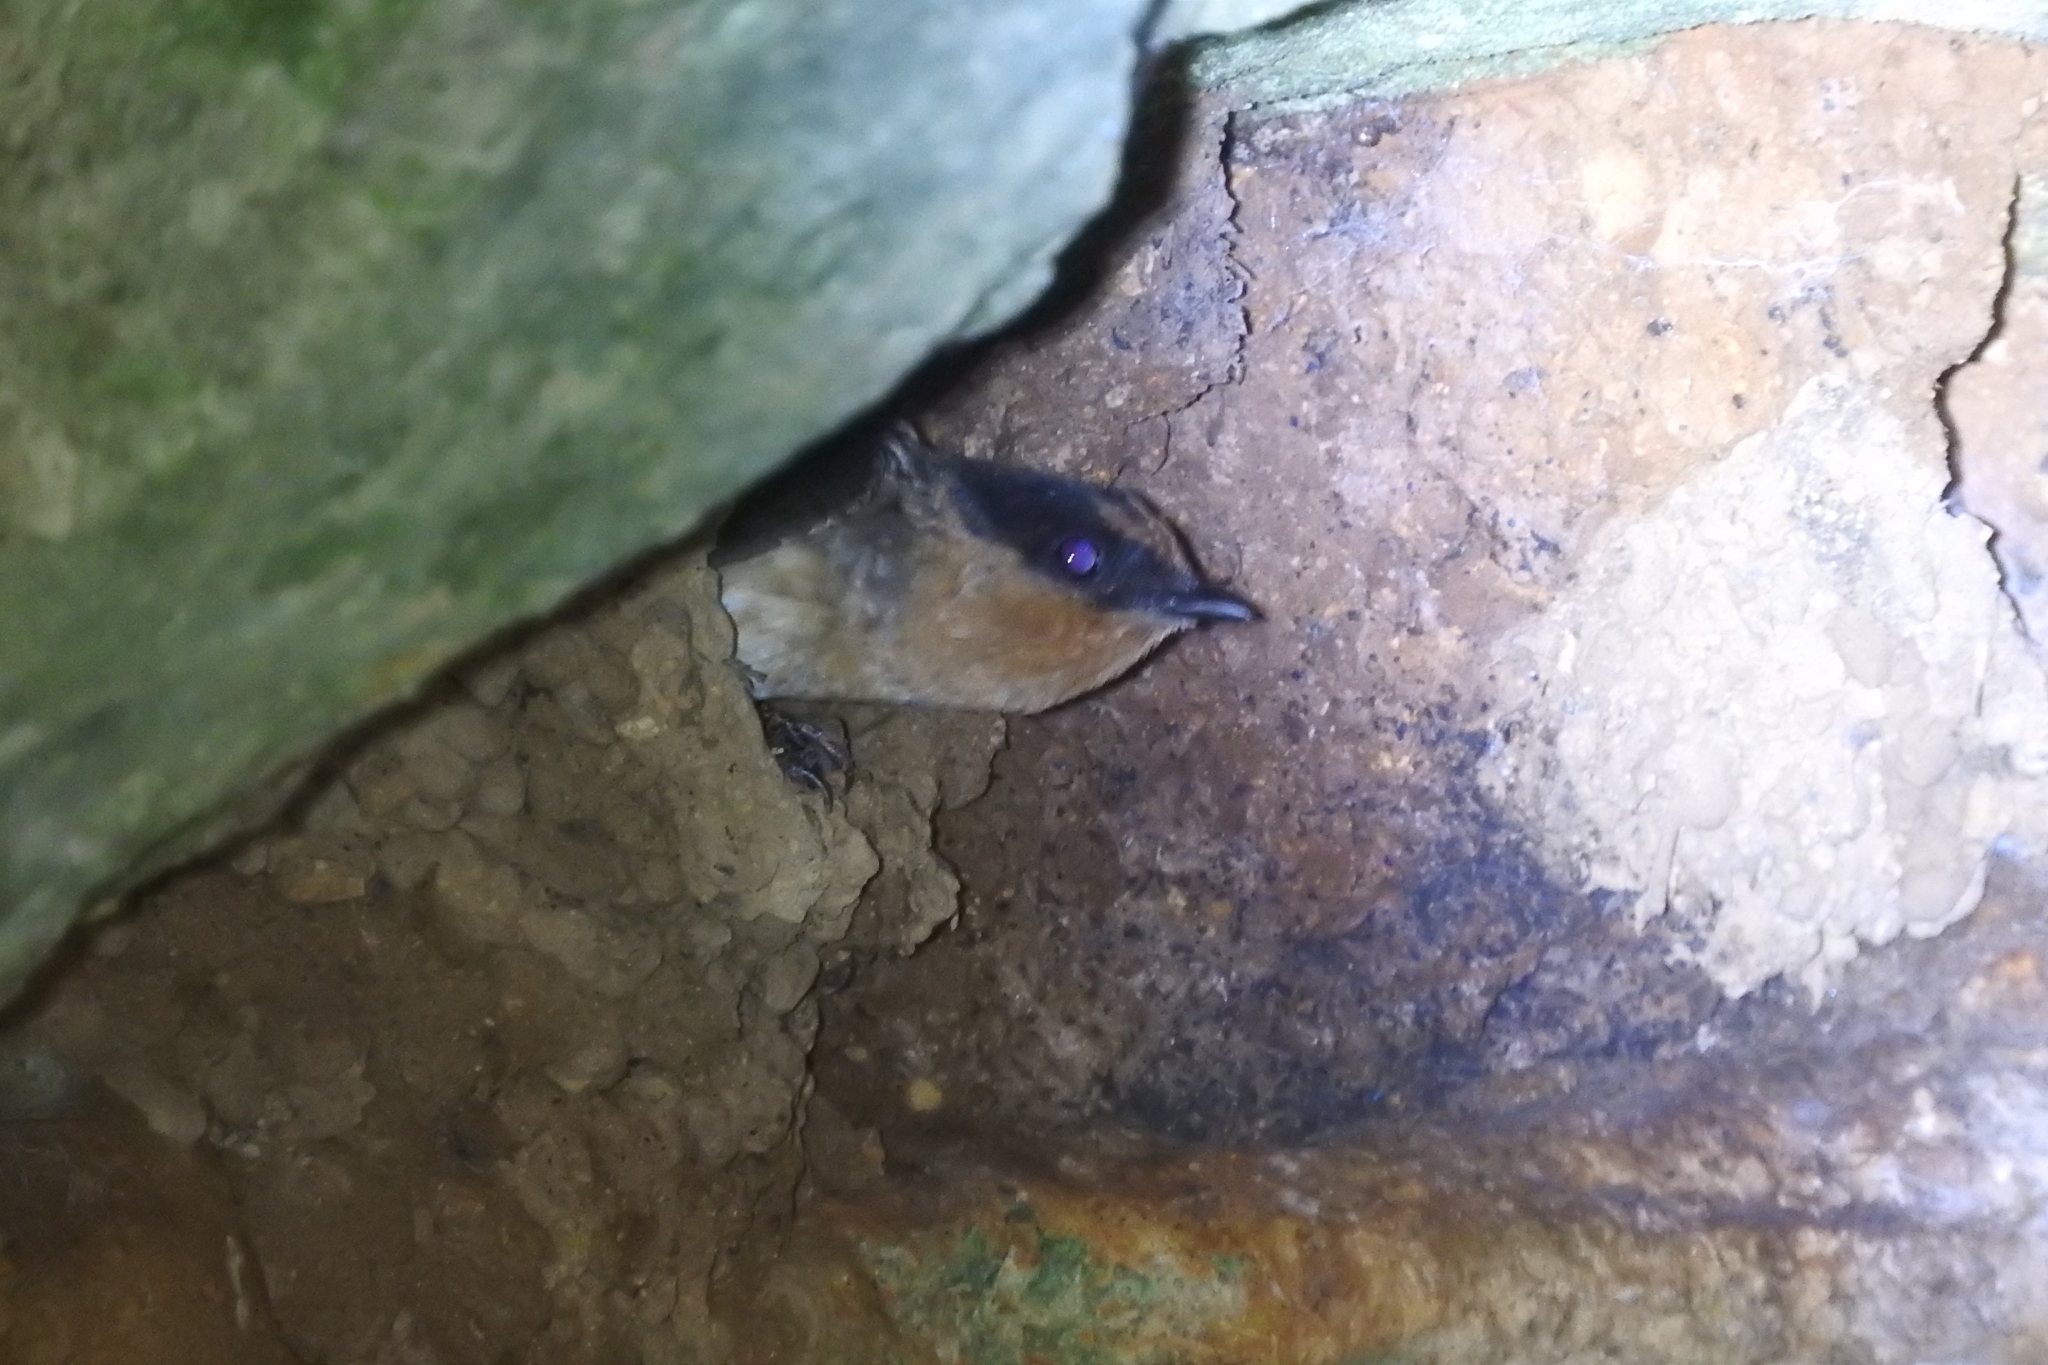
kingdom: Animalia
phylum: Chordata
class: Aves
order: Passeriformes
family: Hirundinidae
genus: Petrochelidon
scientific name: Petrochelidon fulva
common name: Cave swallow
